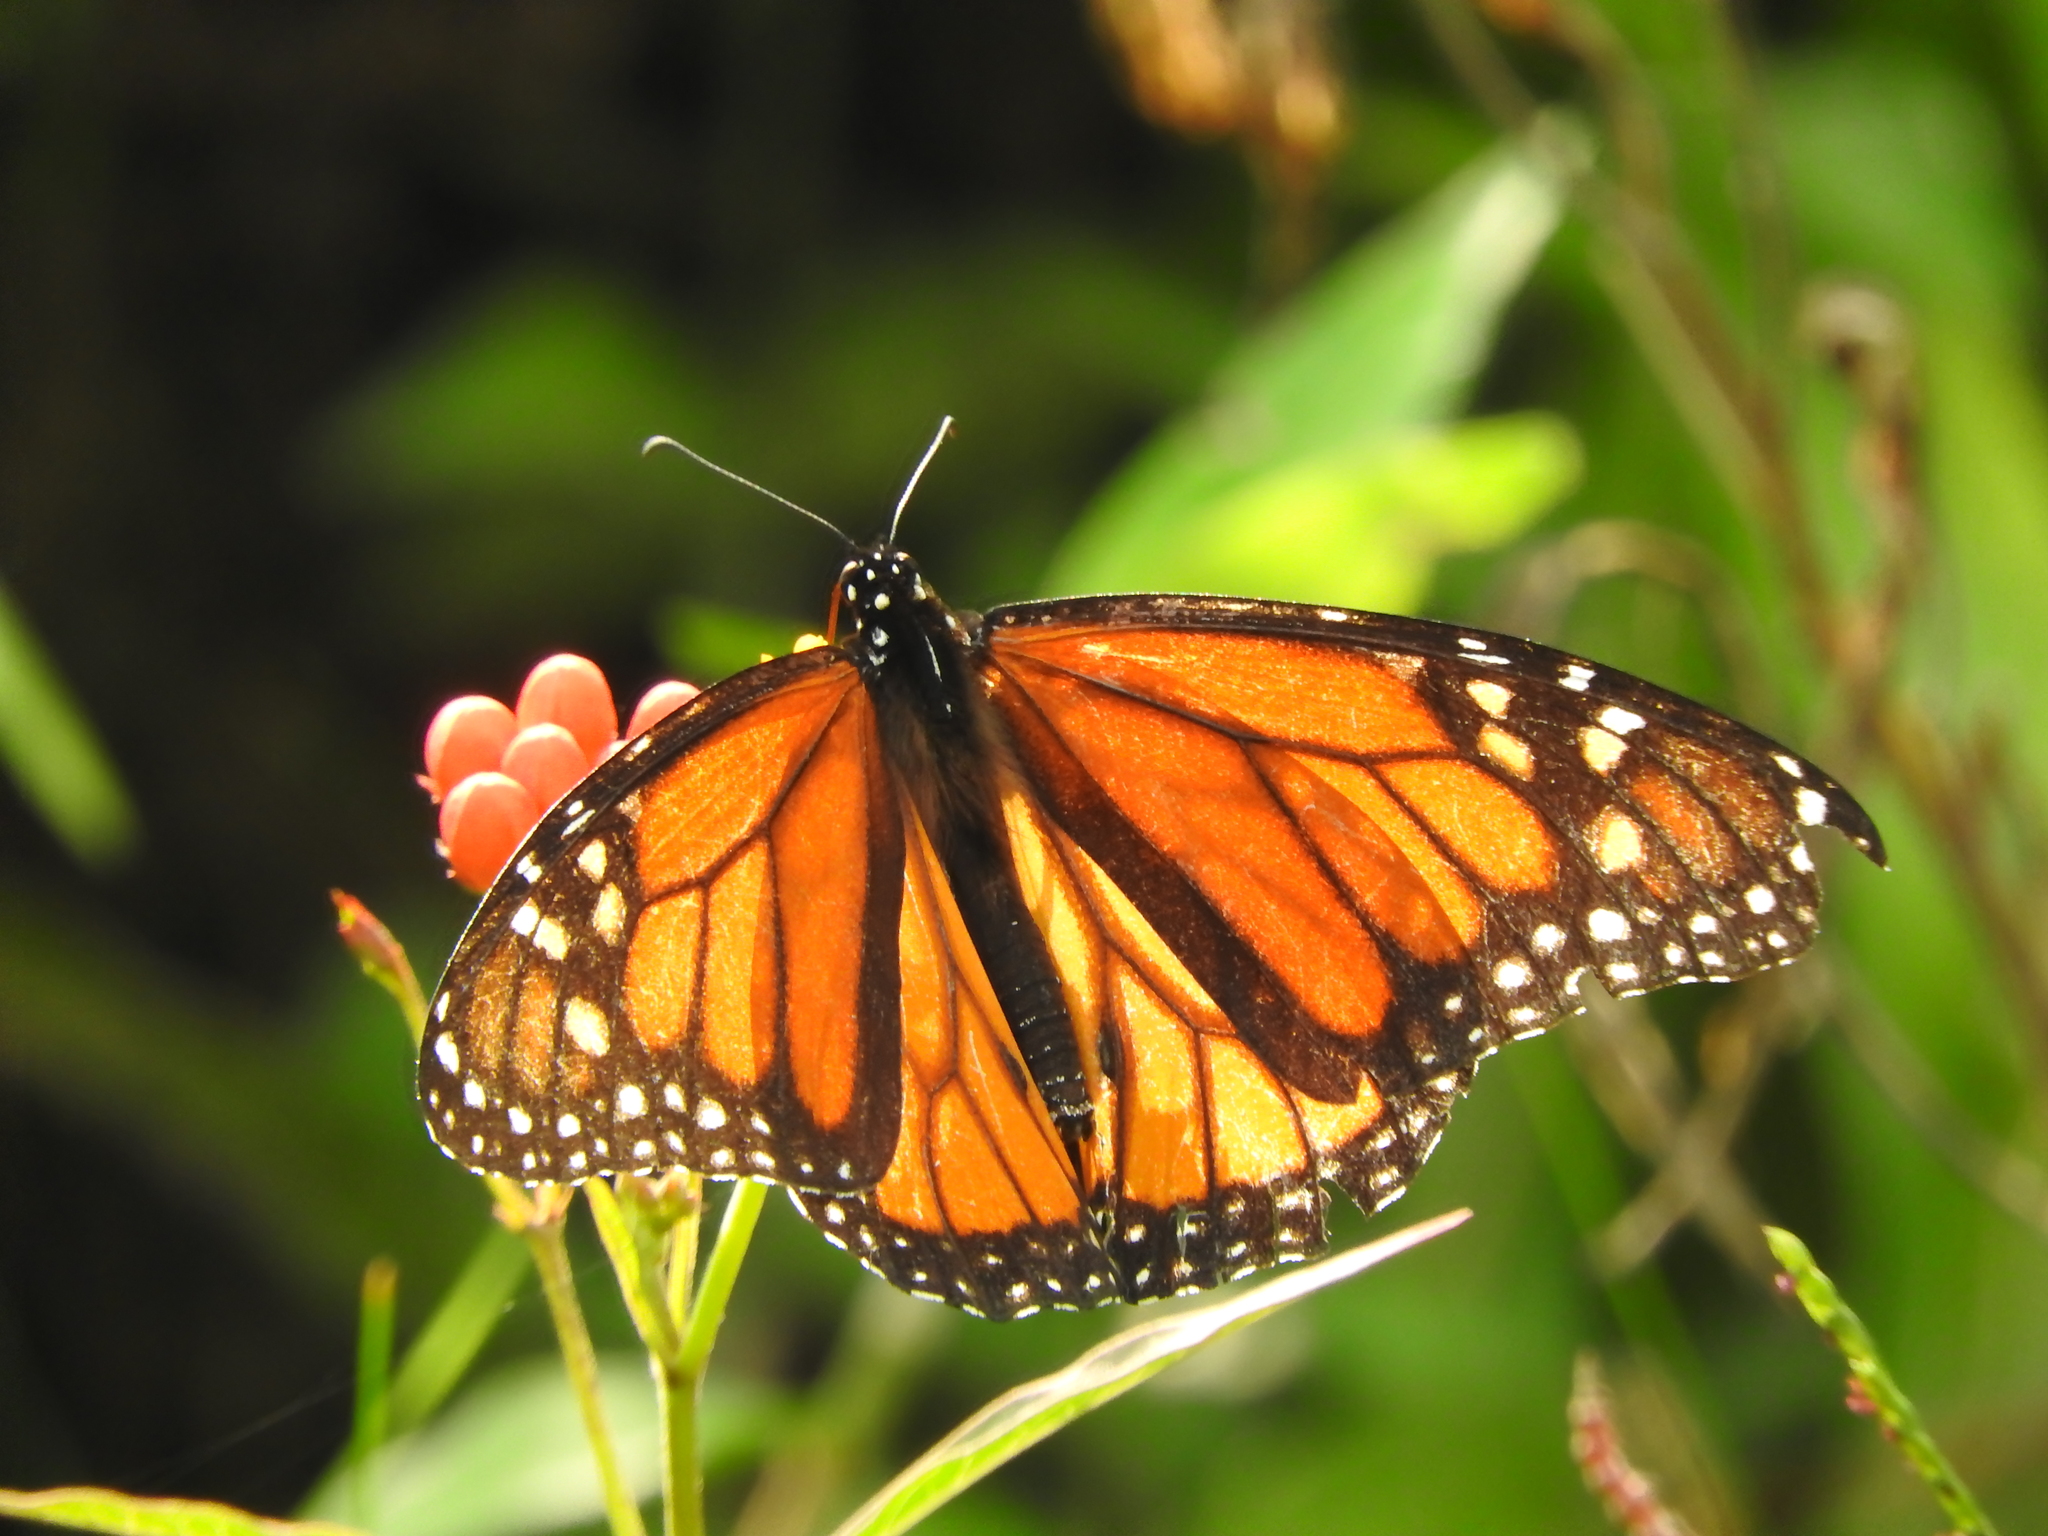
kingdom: Animalia
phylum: Arthropoda
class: Insecta
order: Lepidoptera
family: Nymphalidae
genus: Danaus
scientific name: Danaus plexippus
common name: Monarch
